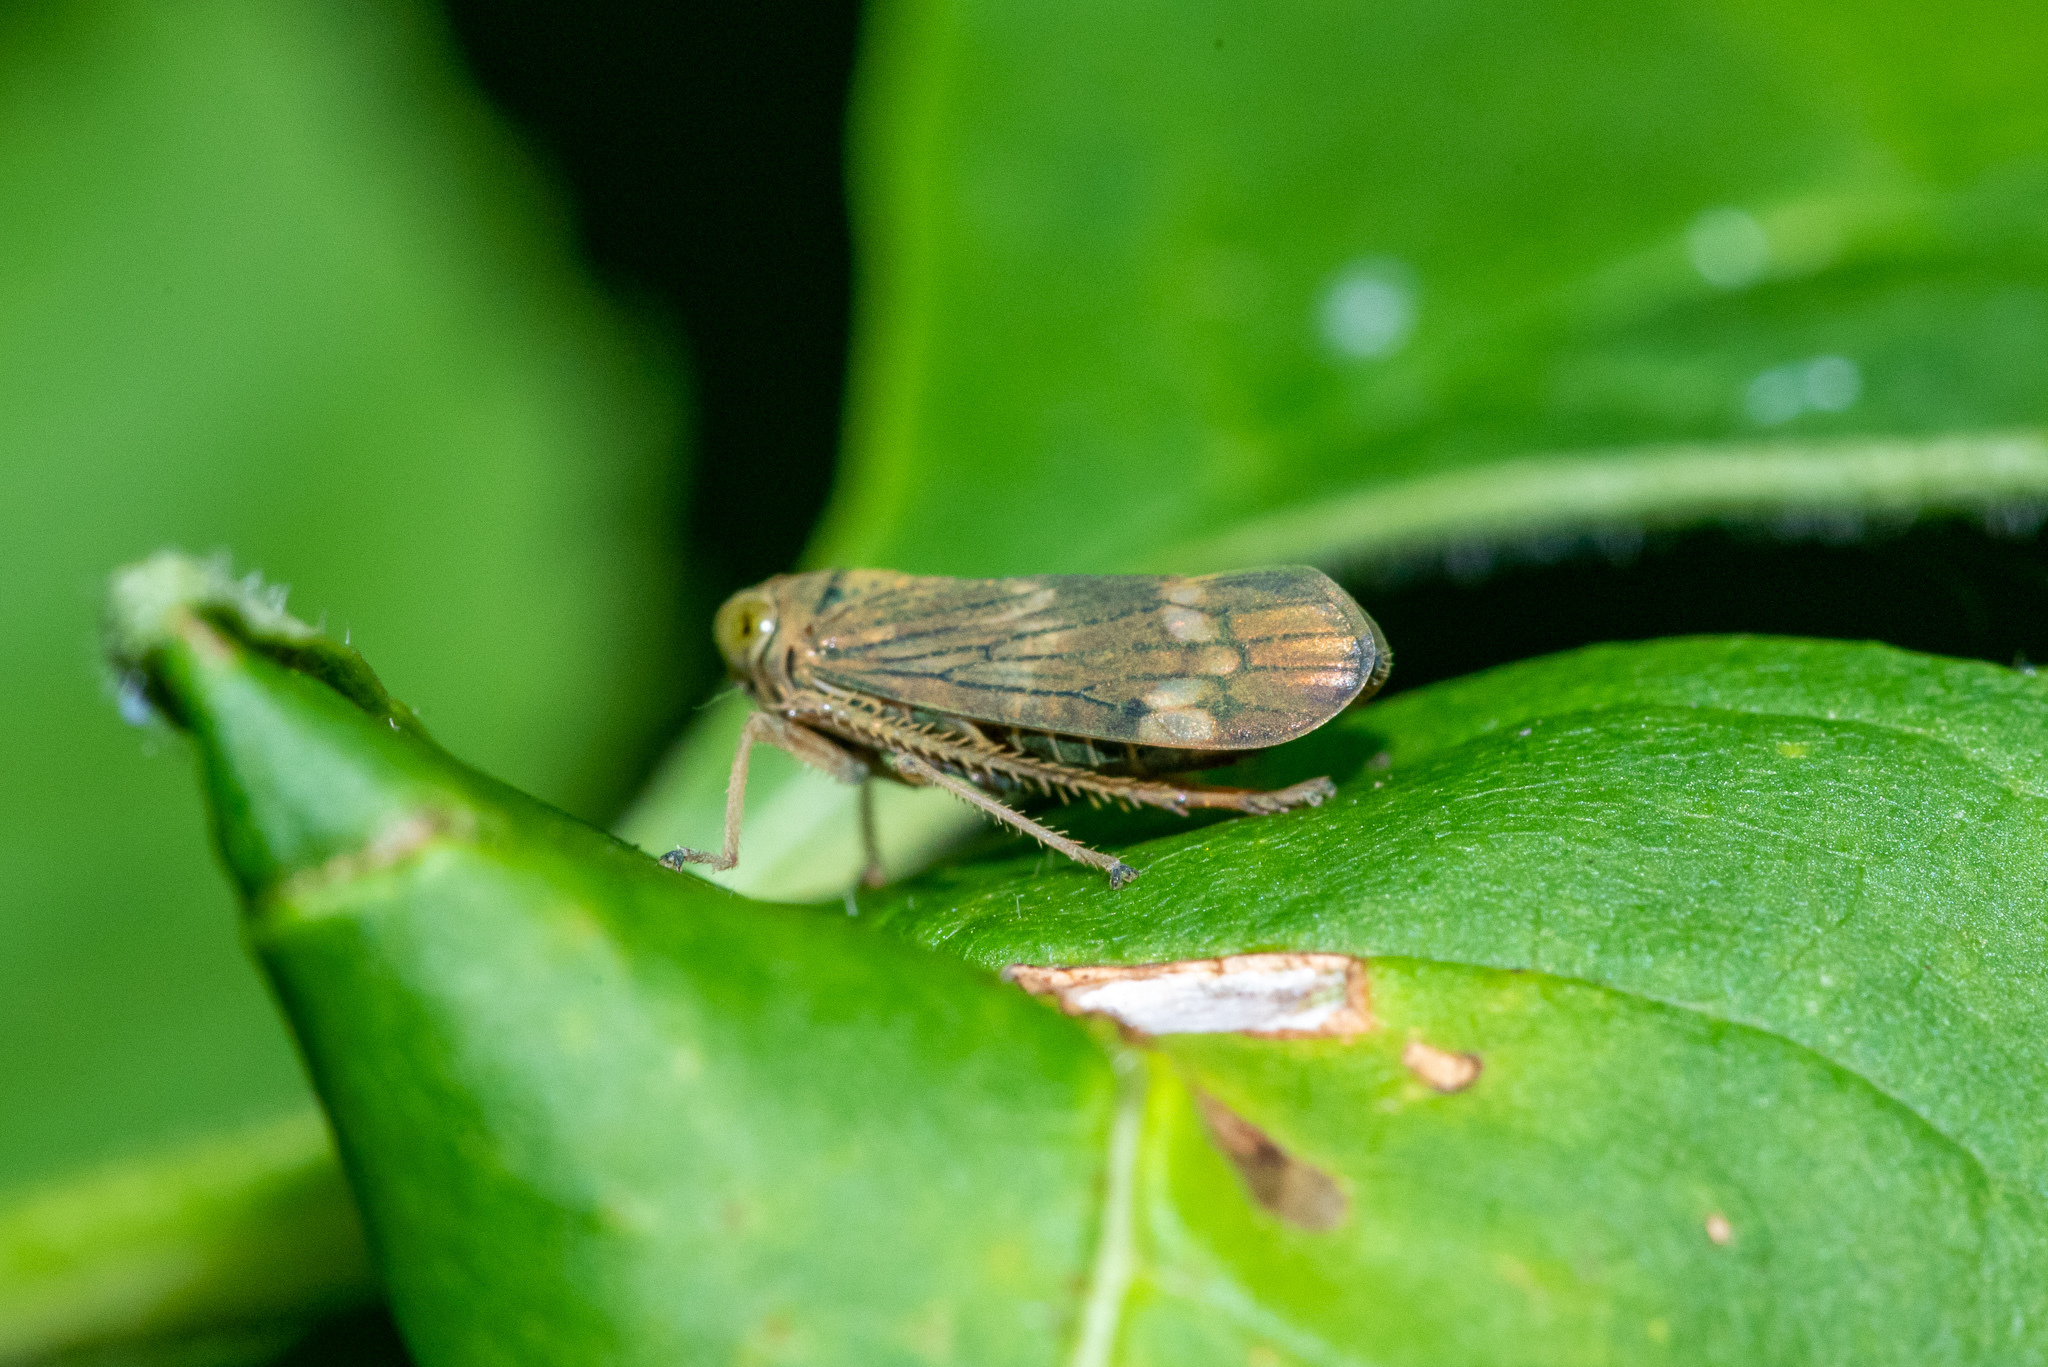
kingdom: Animalia
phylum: Arthropoda
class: Insecta
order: Hemiptera
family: Cicadellidae
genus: Jikradia
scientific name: Jikradia olitoria
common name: Coppery leafhopper
